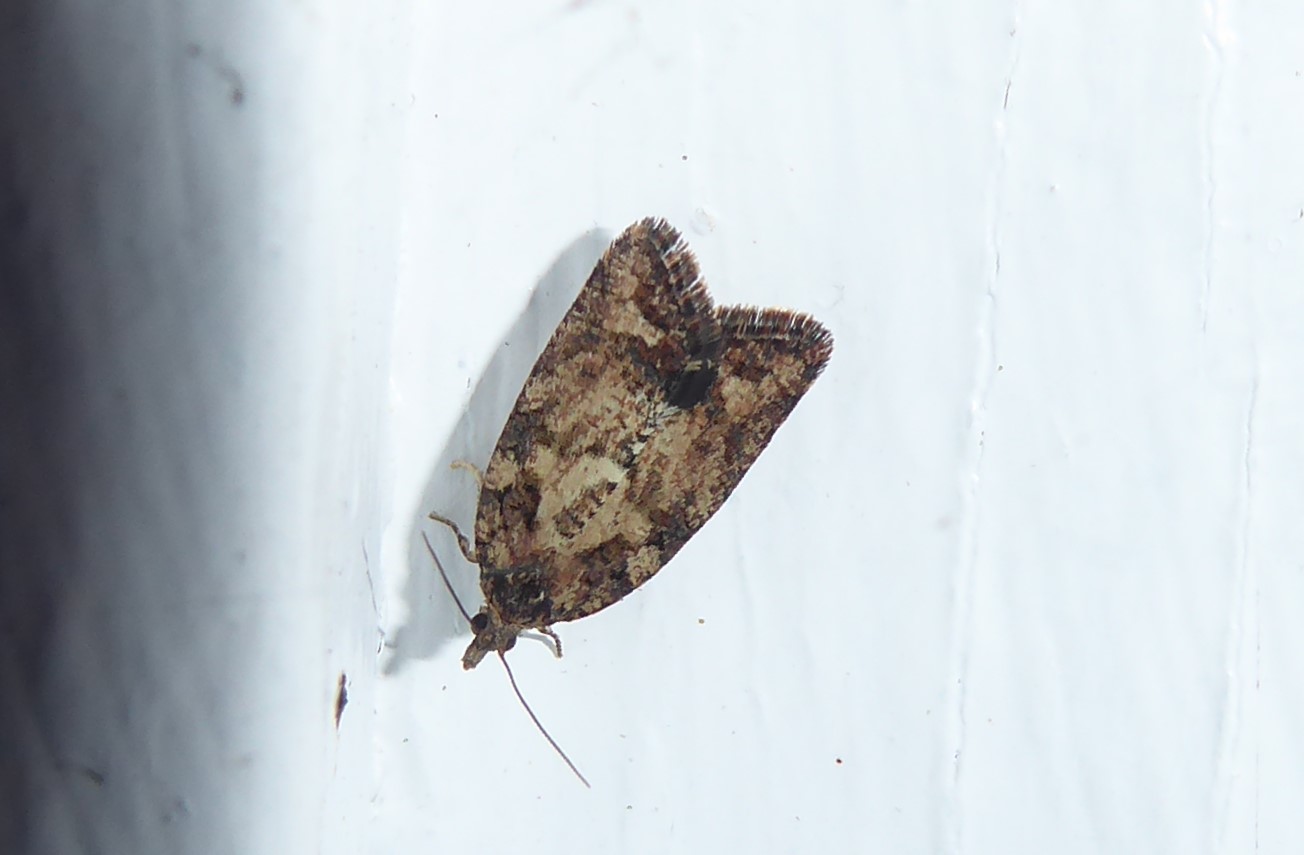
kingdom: Animalia
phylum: Arthropoda
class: Insecta
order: Lepidoptera
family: Tortricidae
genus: Capua
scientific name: Capua intractana
